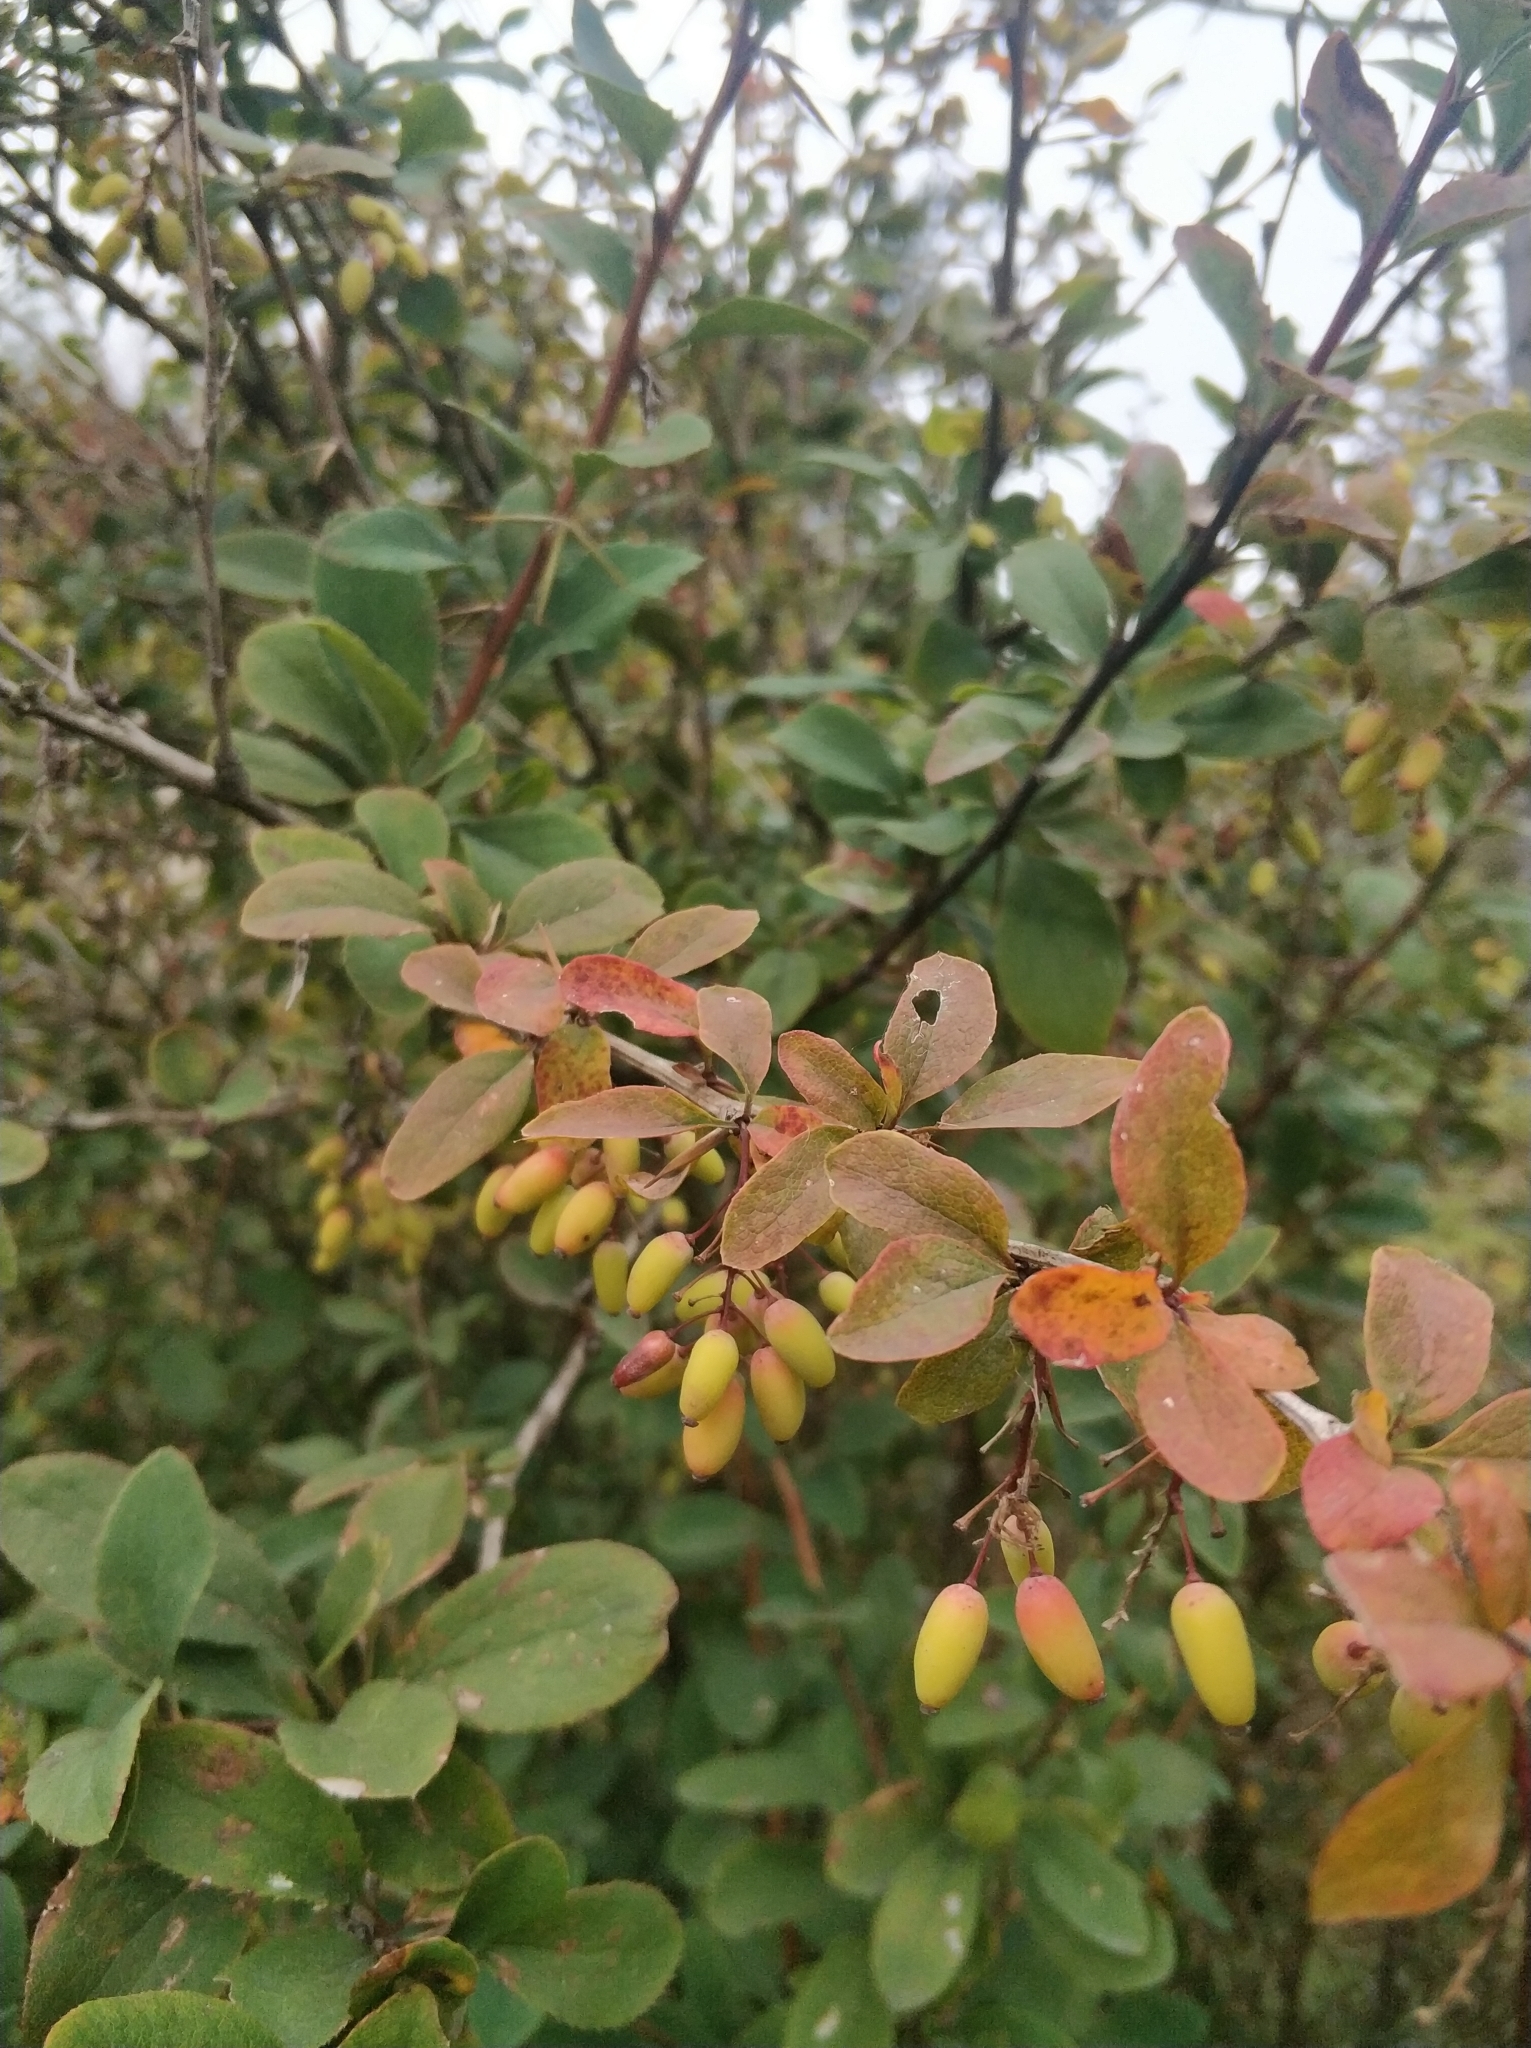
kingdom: Plantae
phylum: Tracheophyta
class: Magnoliopsida
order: Ranunculales
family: Berberidaceae
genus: Berberis
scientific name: Berberis vulgaris
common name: Barberry
